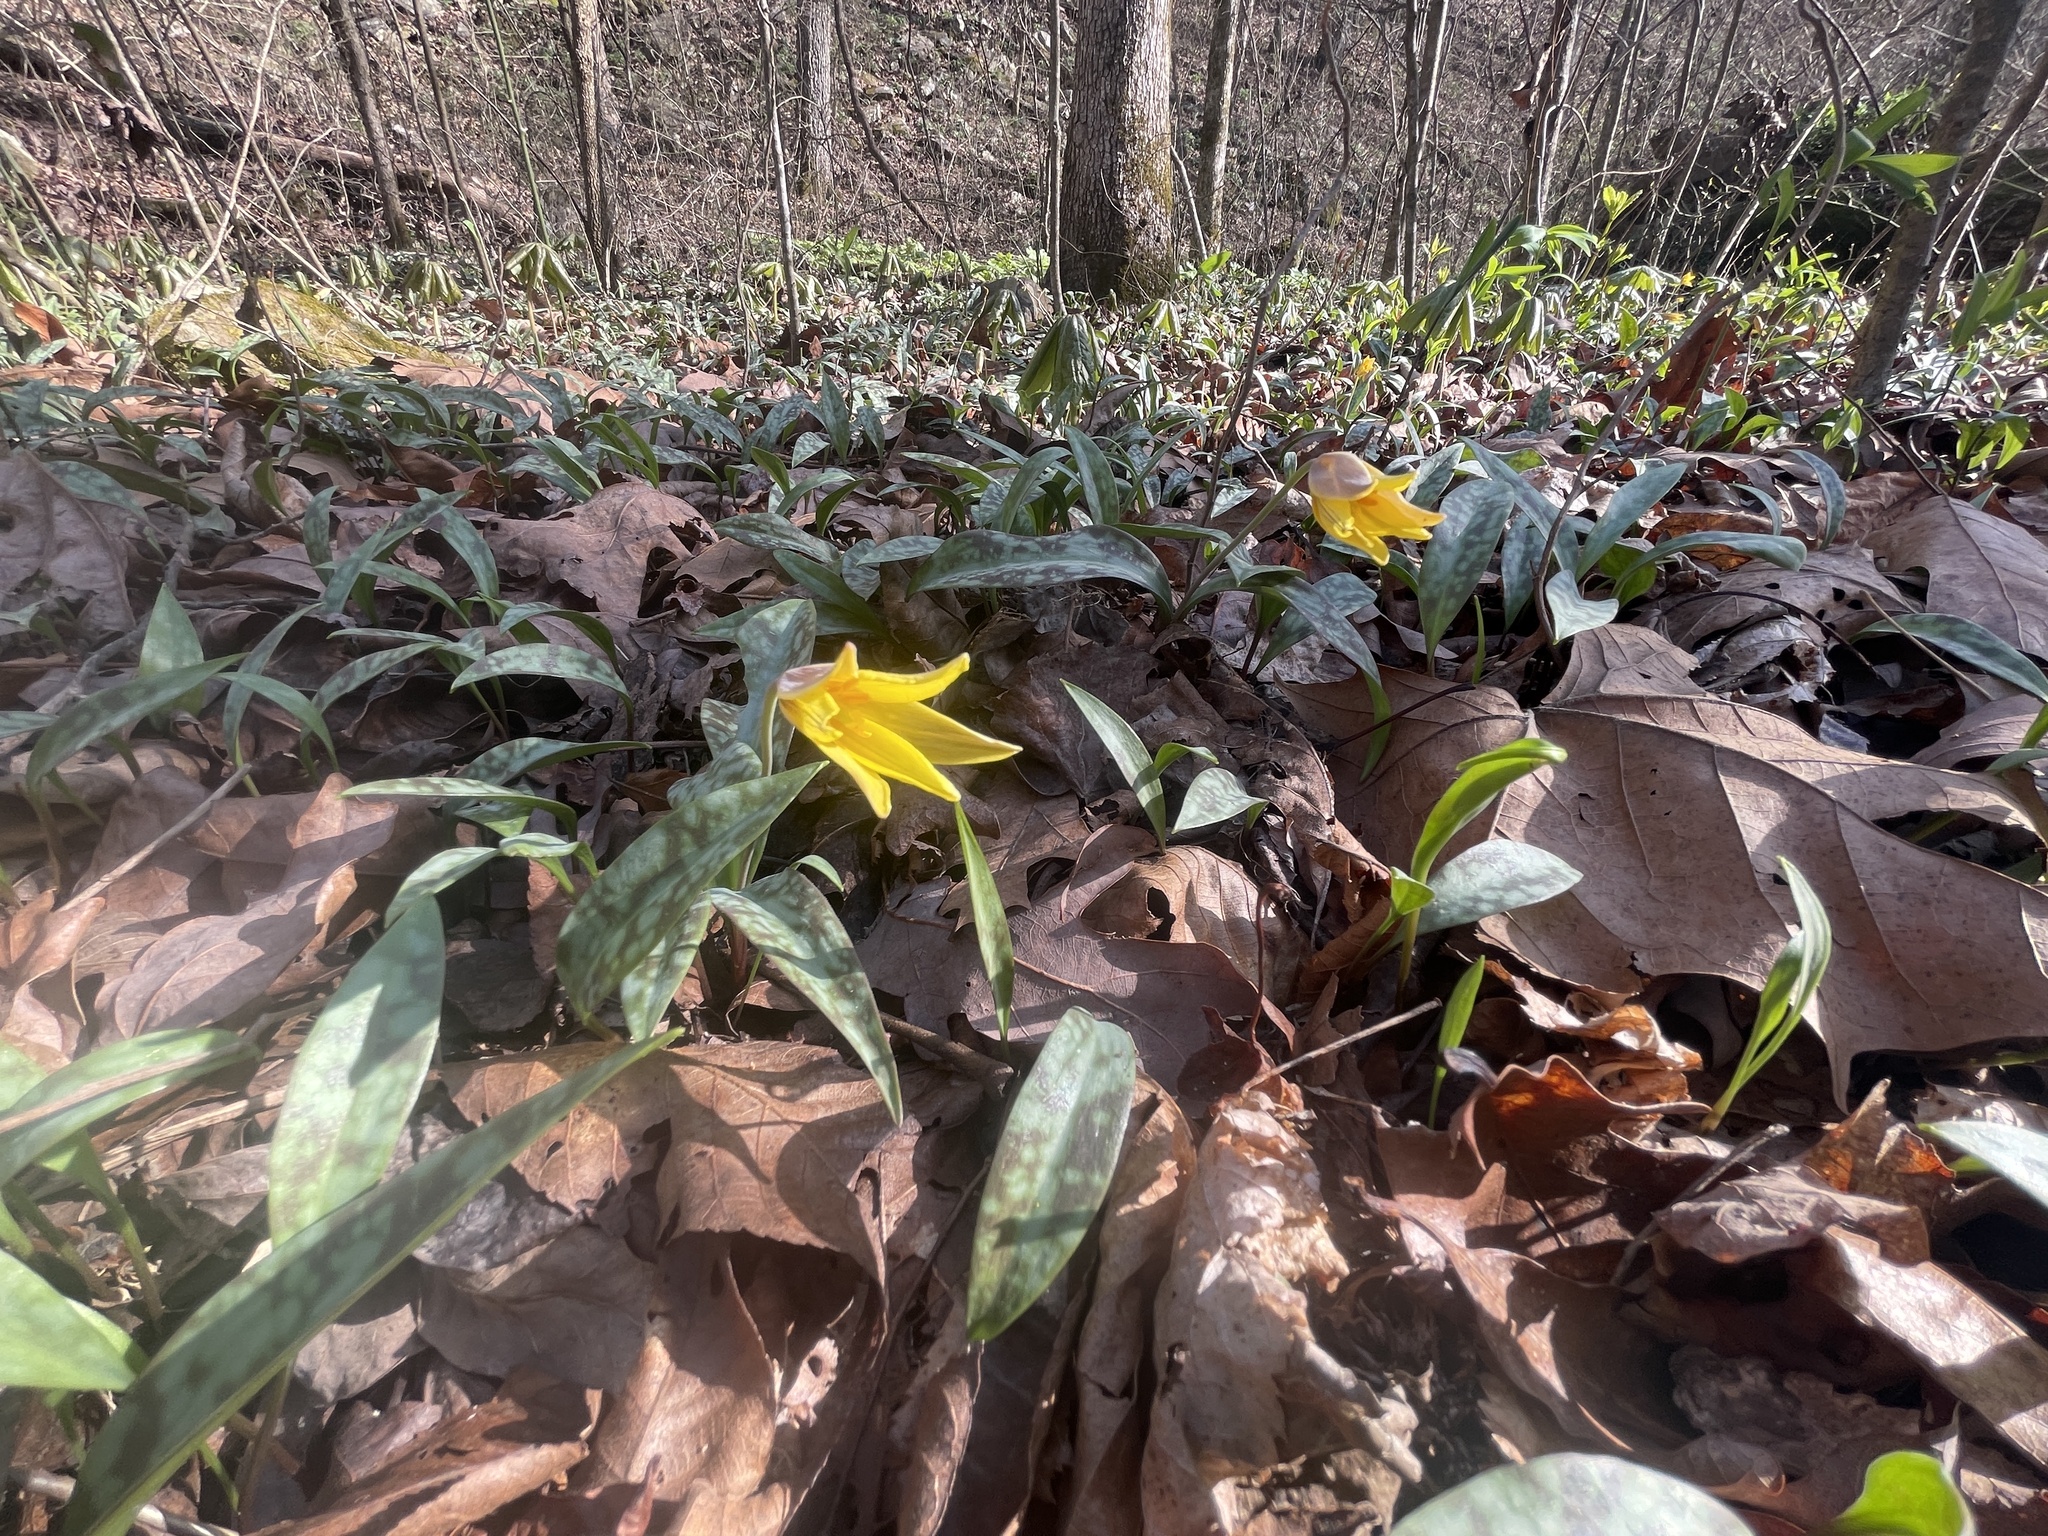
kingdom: Plantae
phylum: Tracheophyta
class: Liliopsida
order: Liliales
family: Liliaceae
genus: Erythronium
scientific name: Erythronium rostratum
